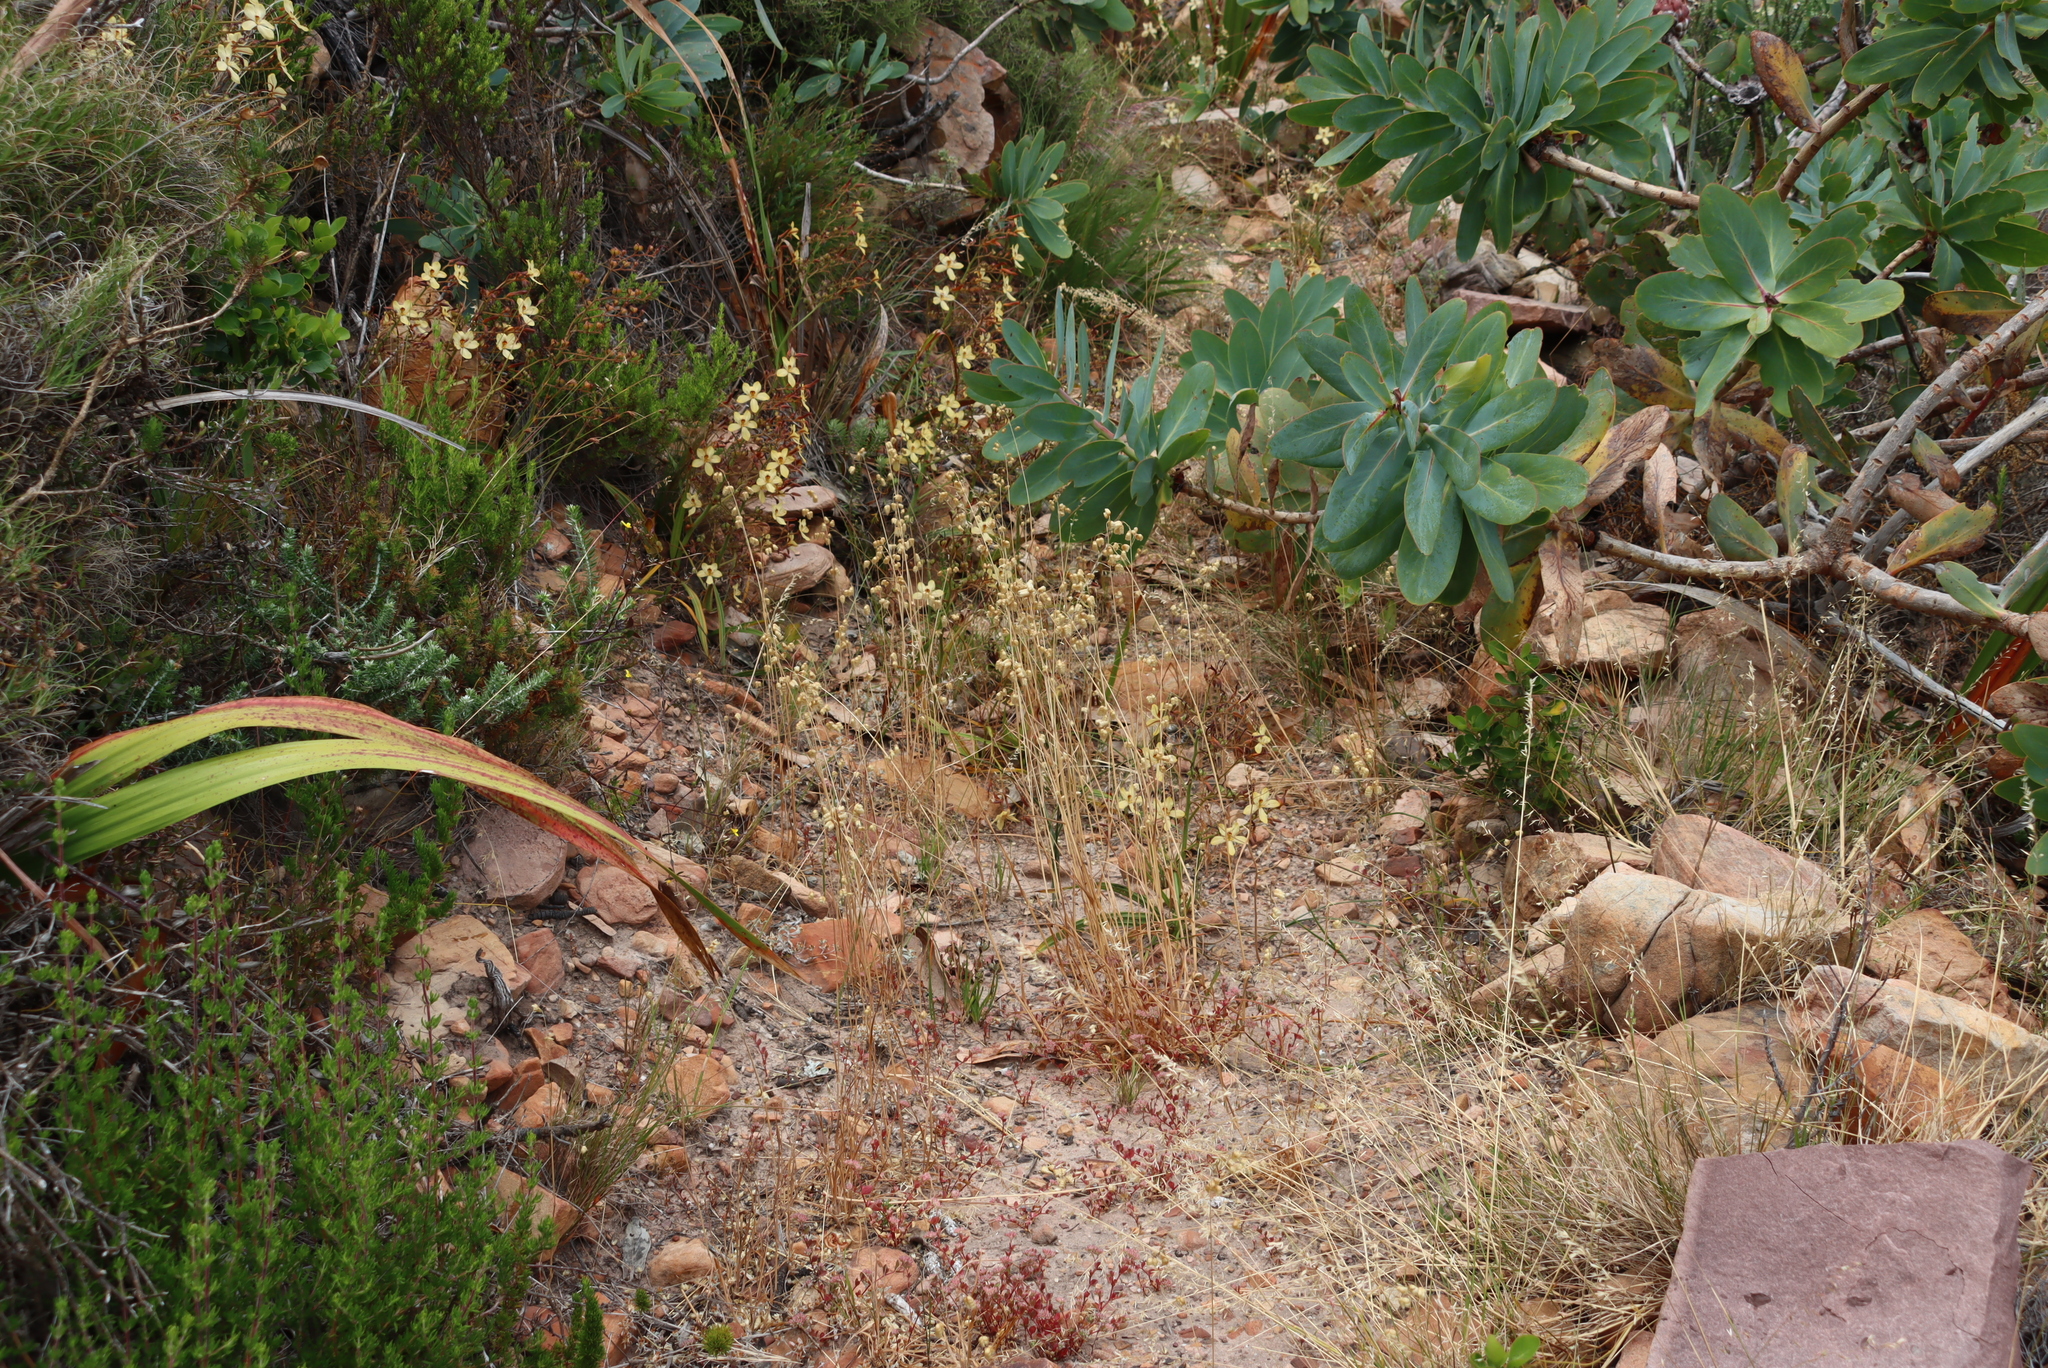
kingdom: Plantae
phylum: Tracheophyta
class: Liliopsida
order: Poales
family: Poaceae
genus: Briza
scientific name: Briza maxima
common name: Big quakinggrass
